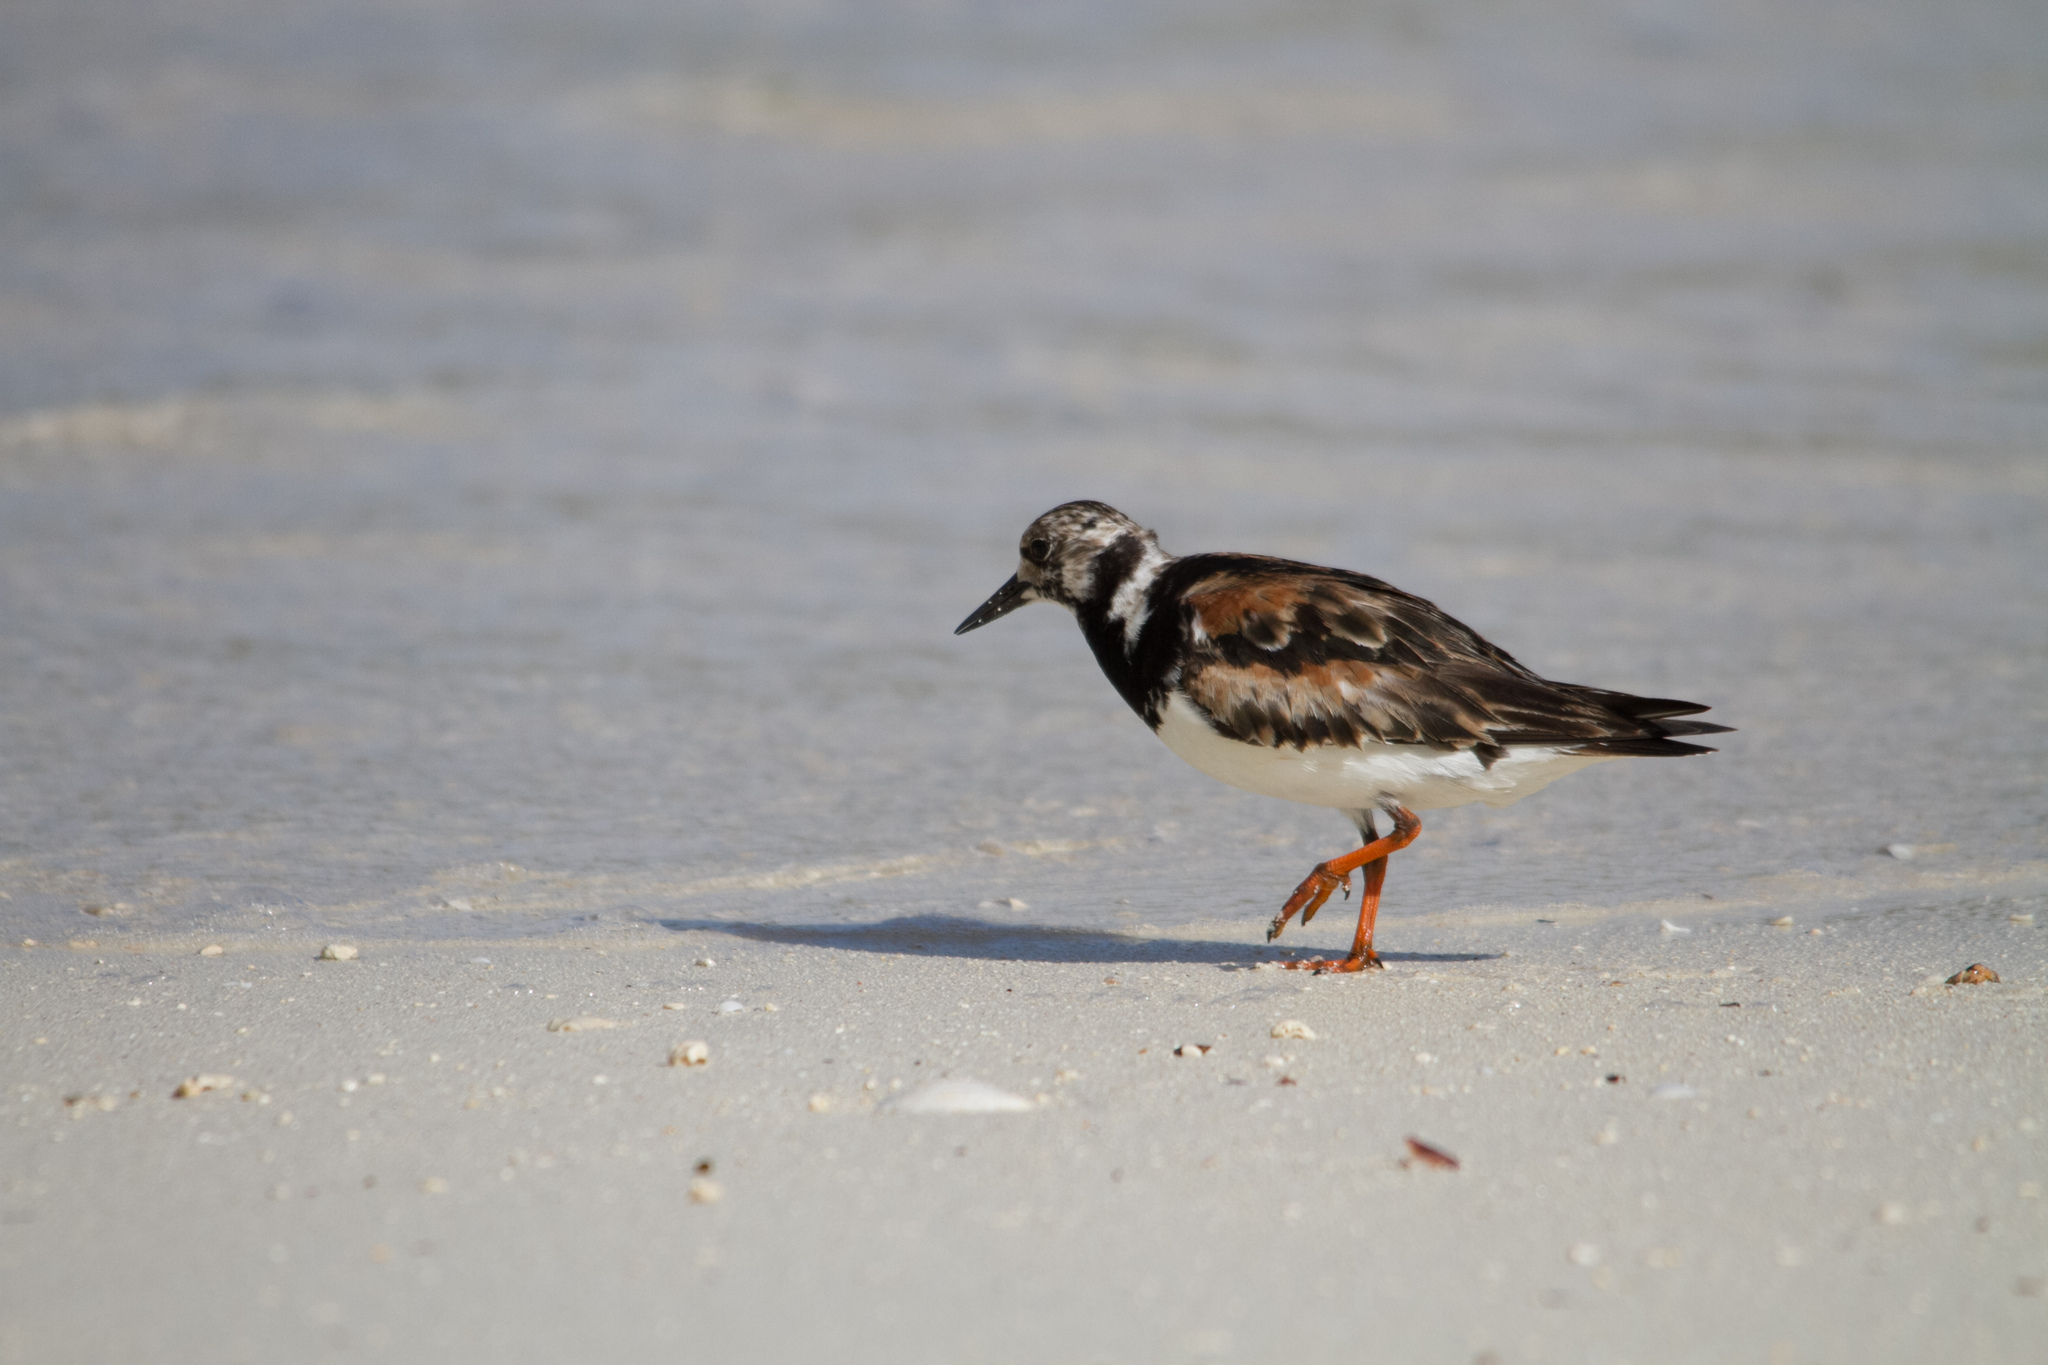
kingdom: Animalia
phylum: Chordata
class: Aves
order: Charadriiformes
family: Scolopacidae
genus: Arenaria
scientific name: Arenaria interpres
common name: Ruddy turnstone
